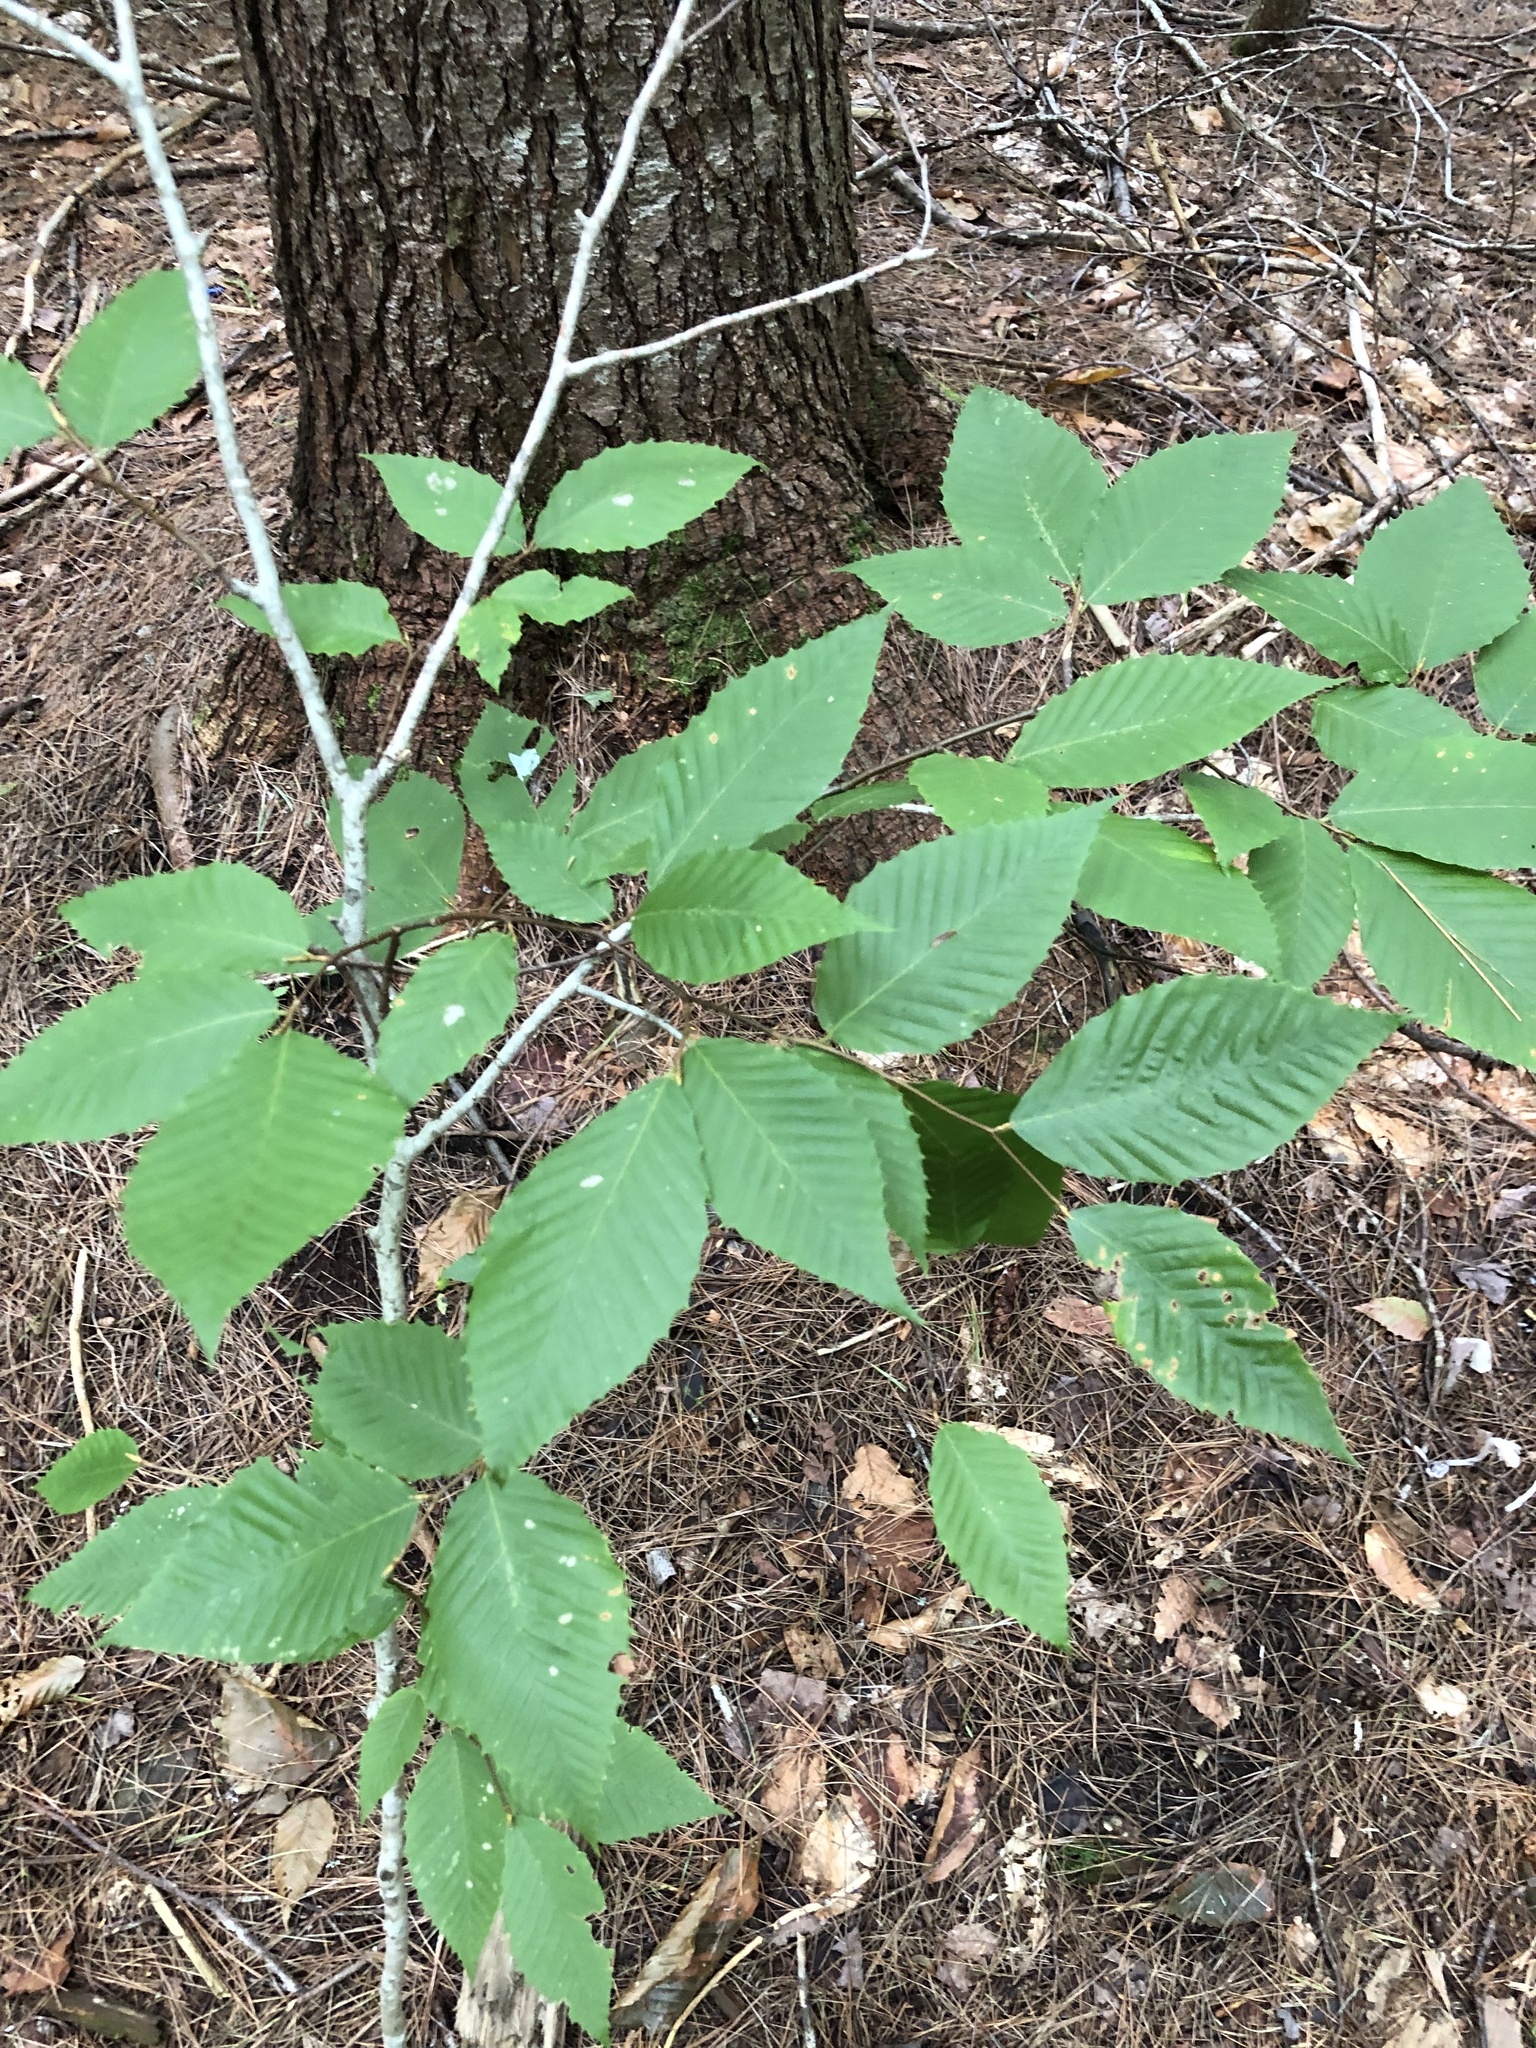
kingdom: Plantae
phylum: Tracheophyta
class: Magnoliopsida
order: Fagales
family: Fagaceae
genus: Fagus
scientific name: Fagus grandifolia
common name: American beech
